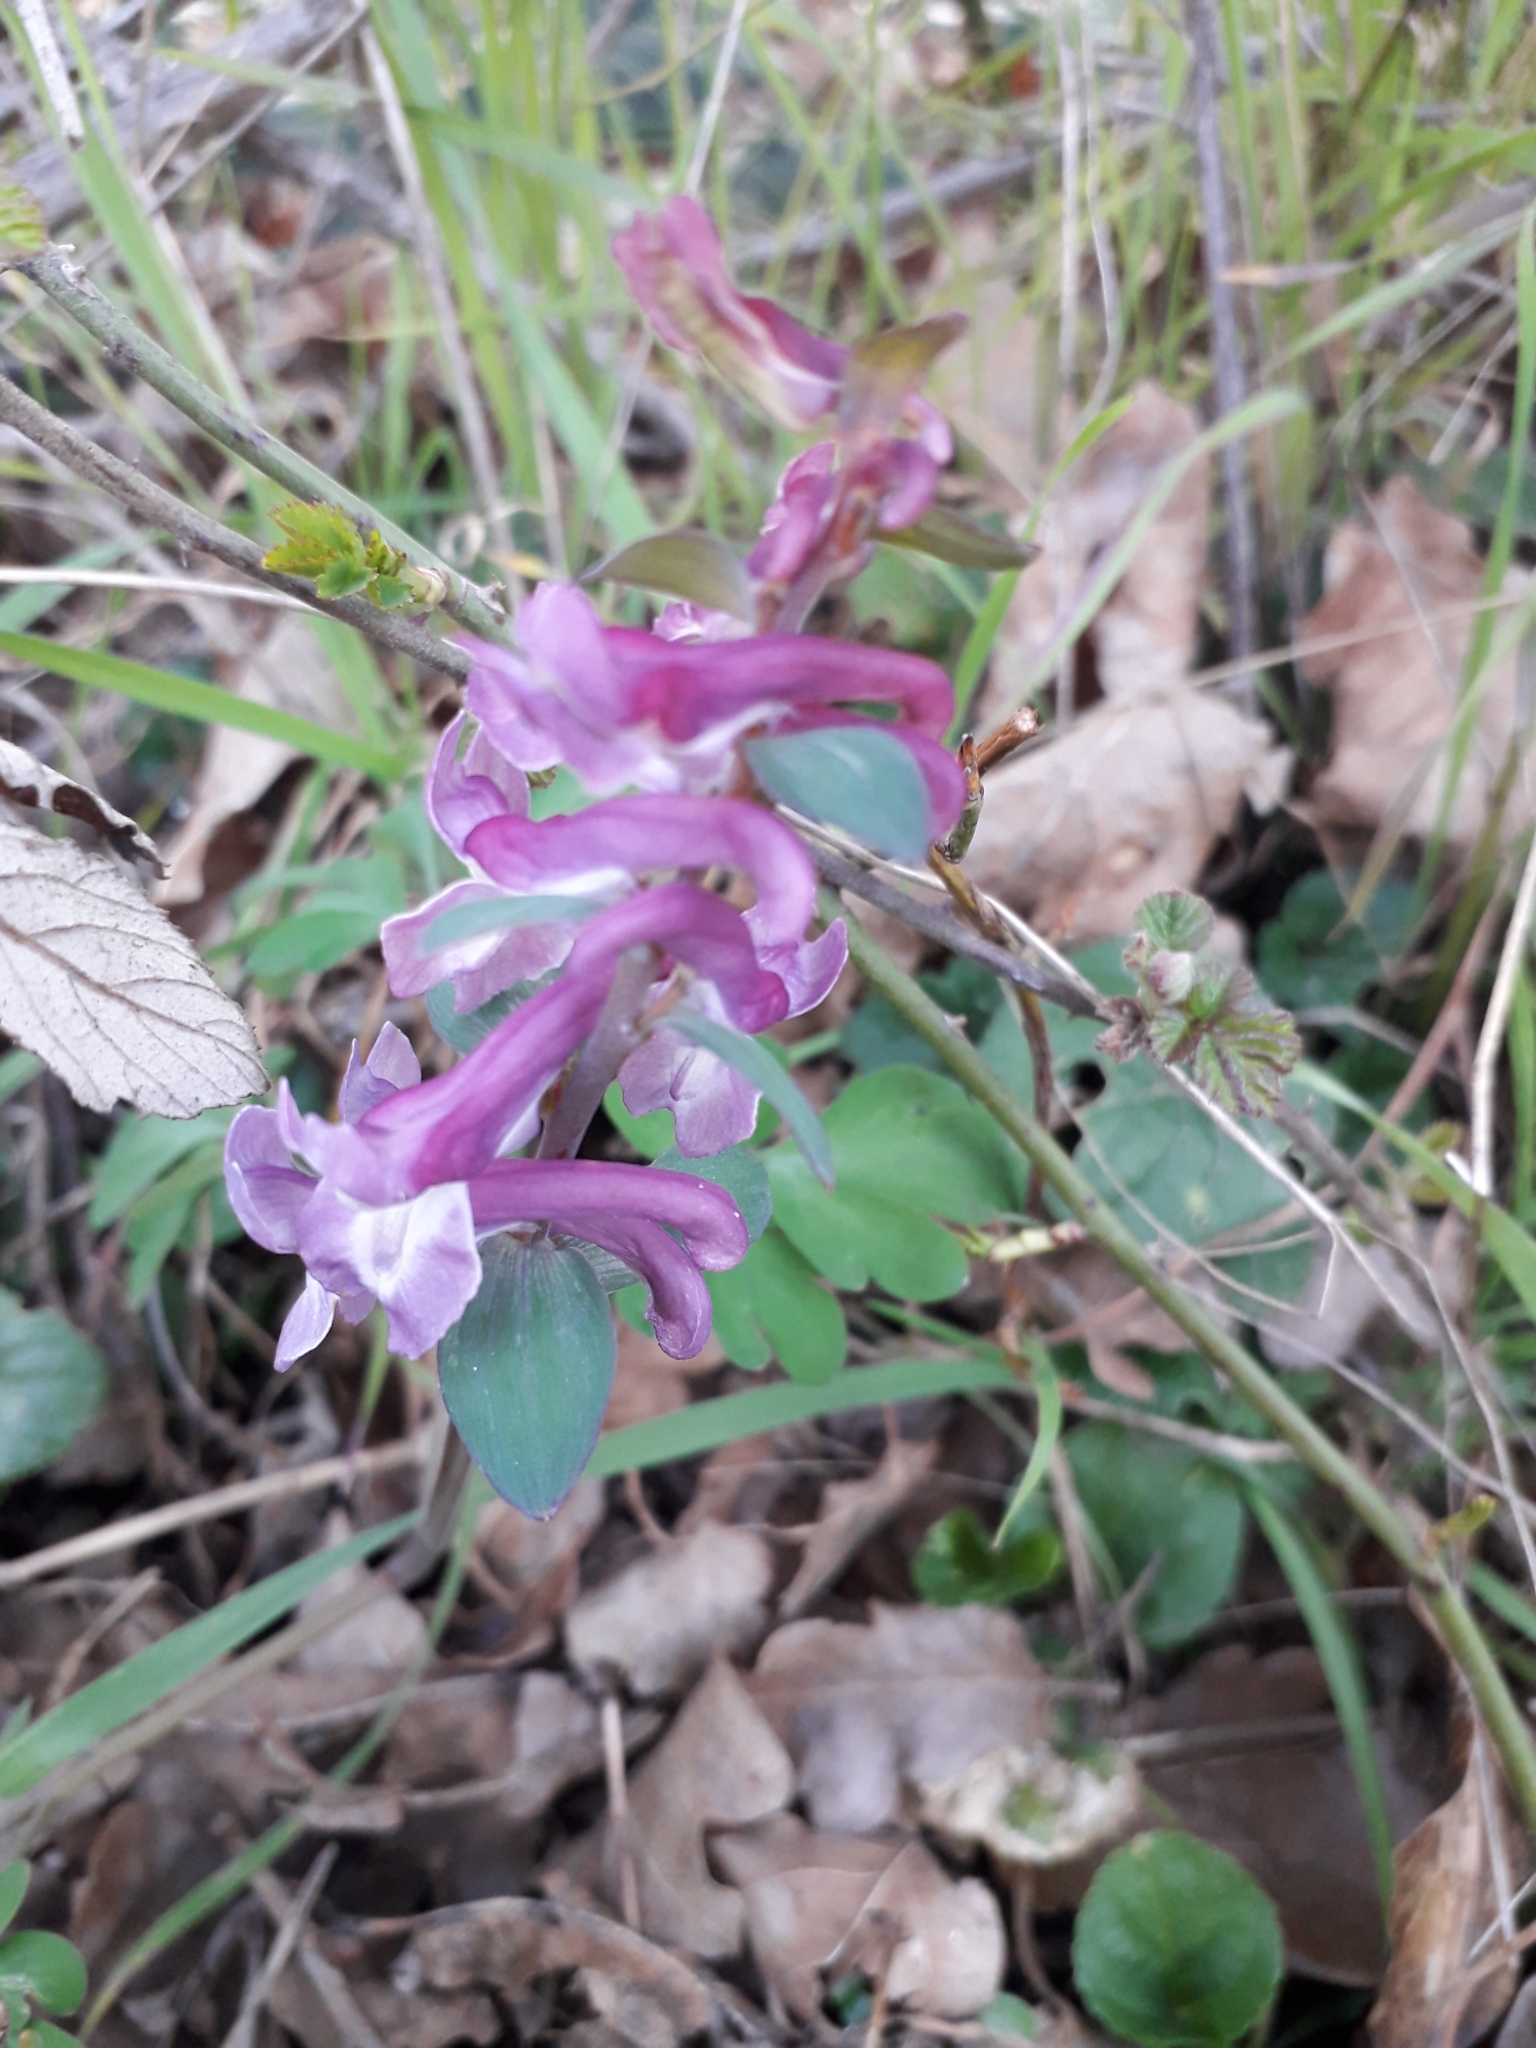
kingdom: Plantae
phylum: Tracheophyta
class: Magnoliopsida
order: Ranunculales
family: Papaveraceae
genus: Corydalis
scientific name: Corydalis cava
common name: Hollowroot
